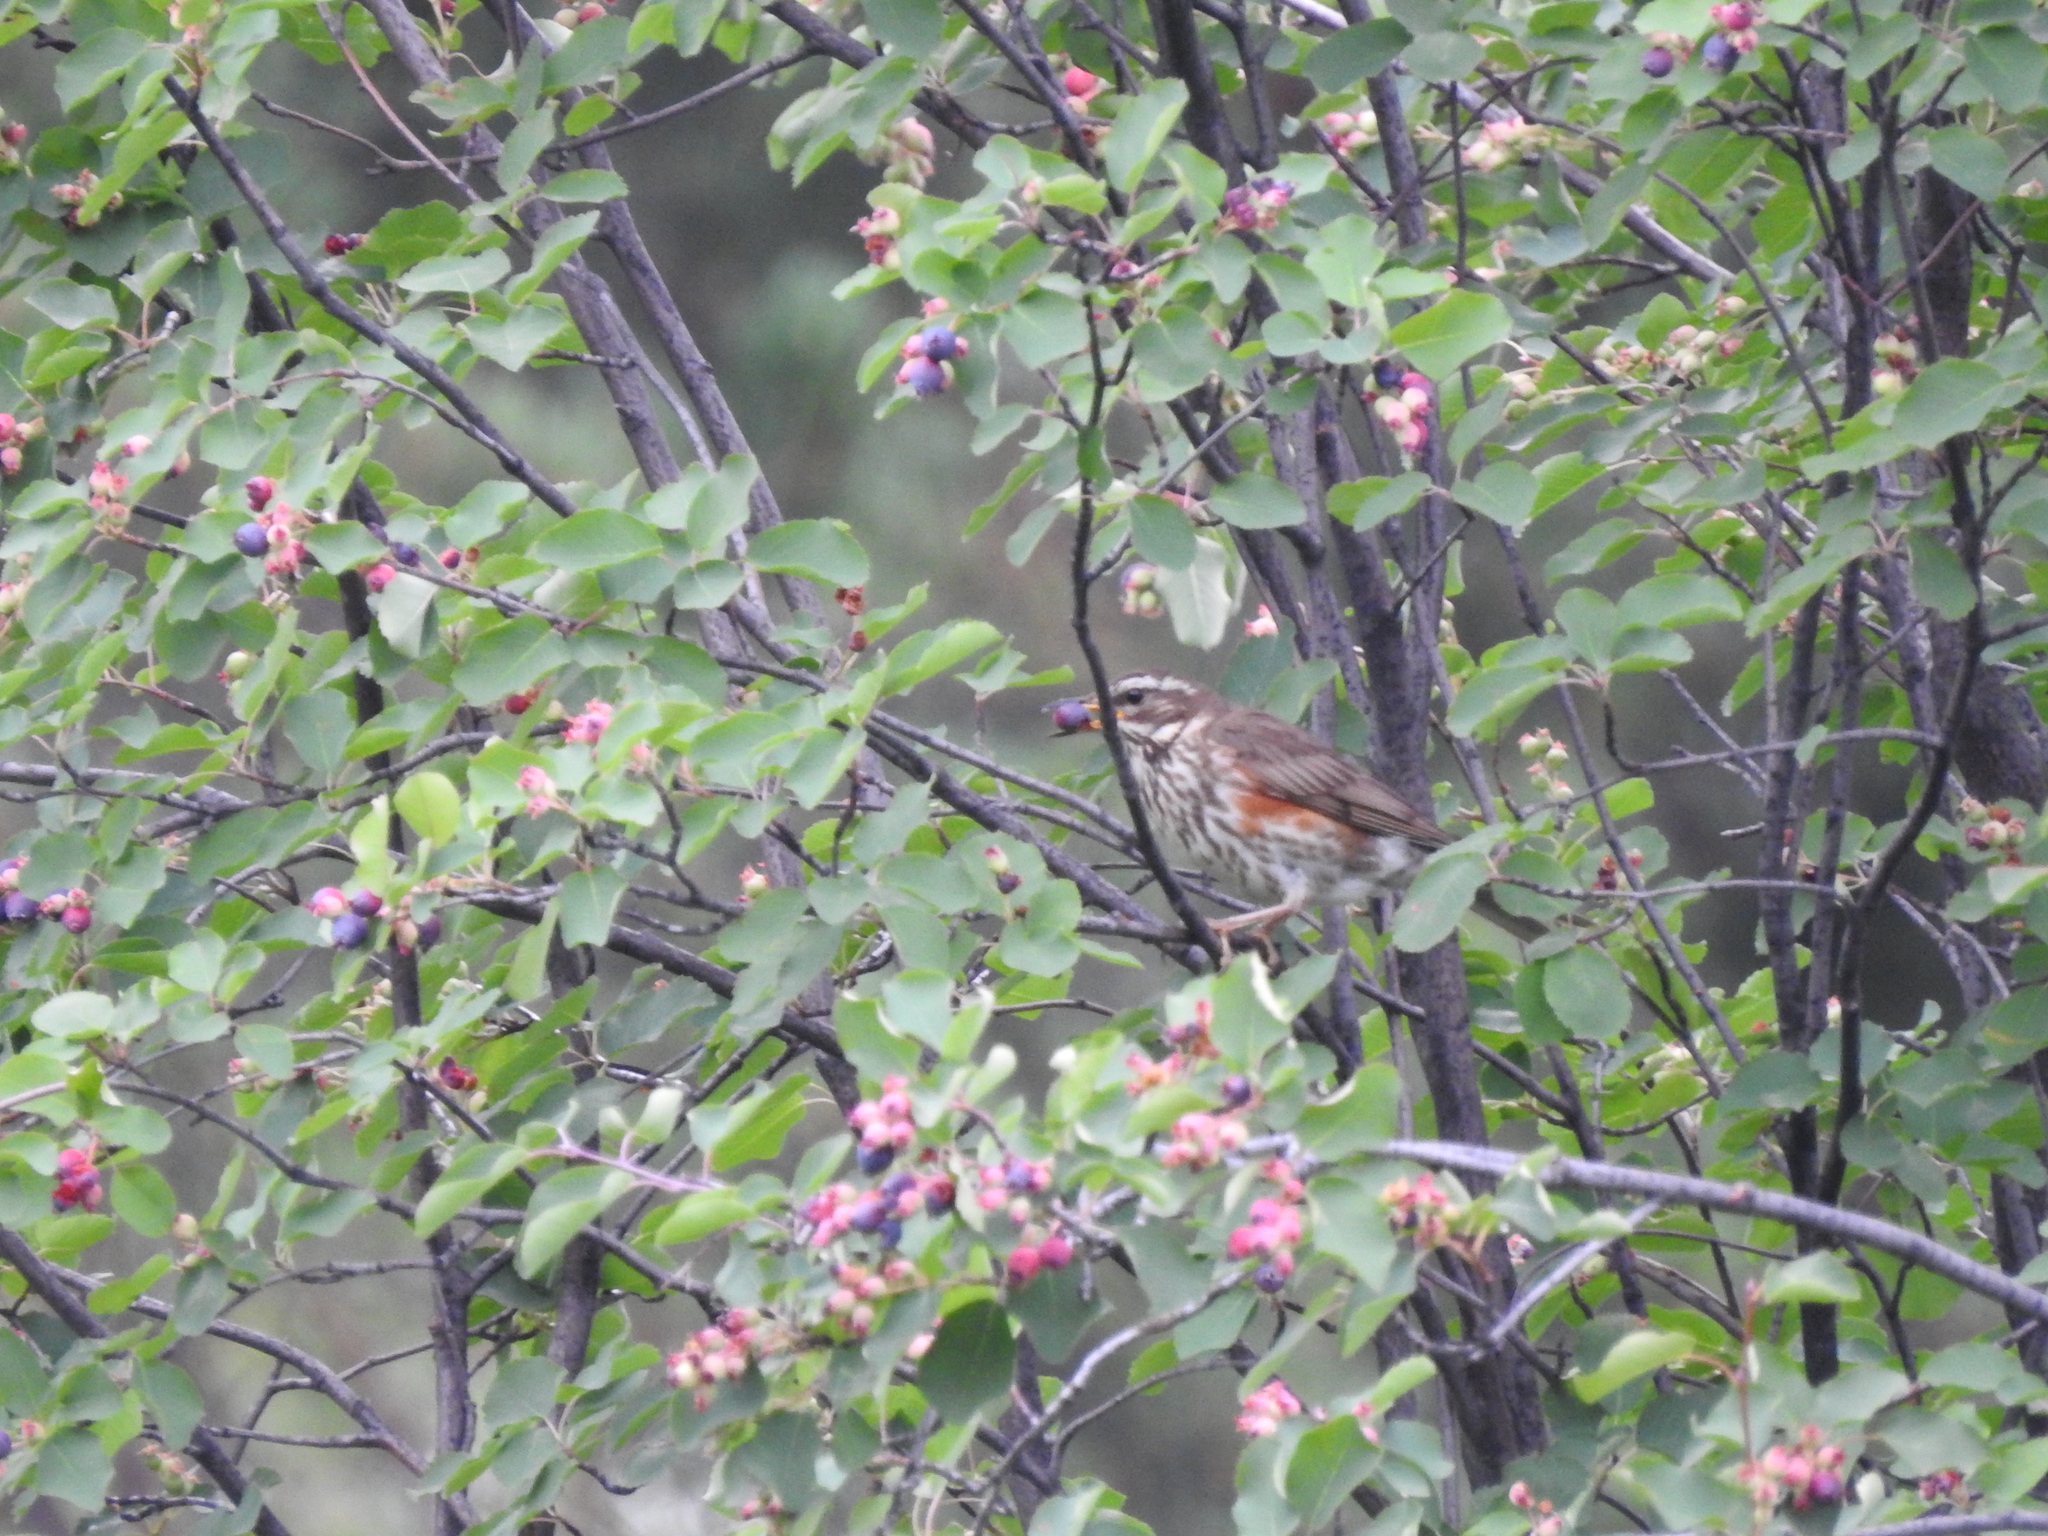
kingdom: Animalia
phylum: Chordata
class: Aves
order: Passeriformes
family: Turdidae
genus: Turdus
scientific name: Turdus iliacus
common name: Redwing
